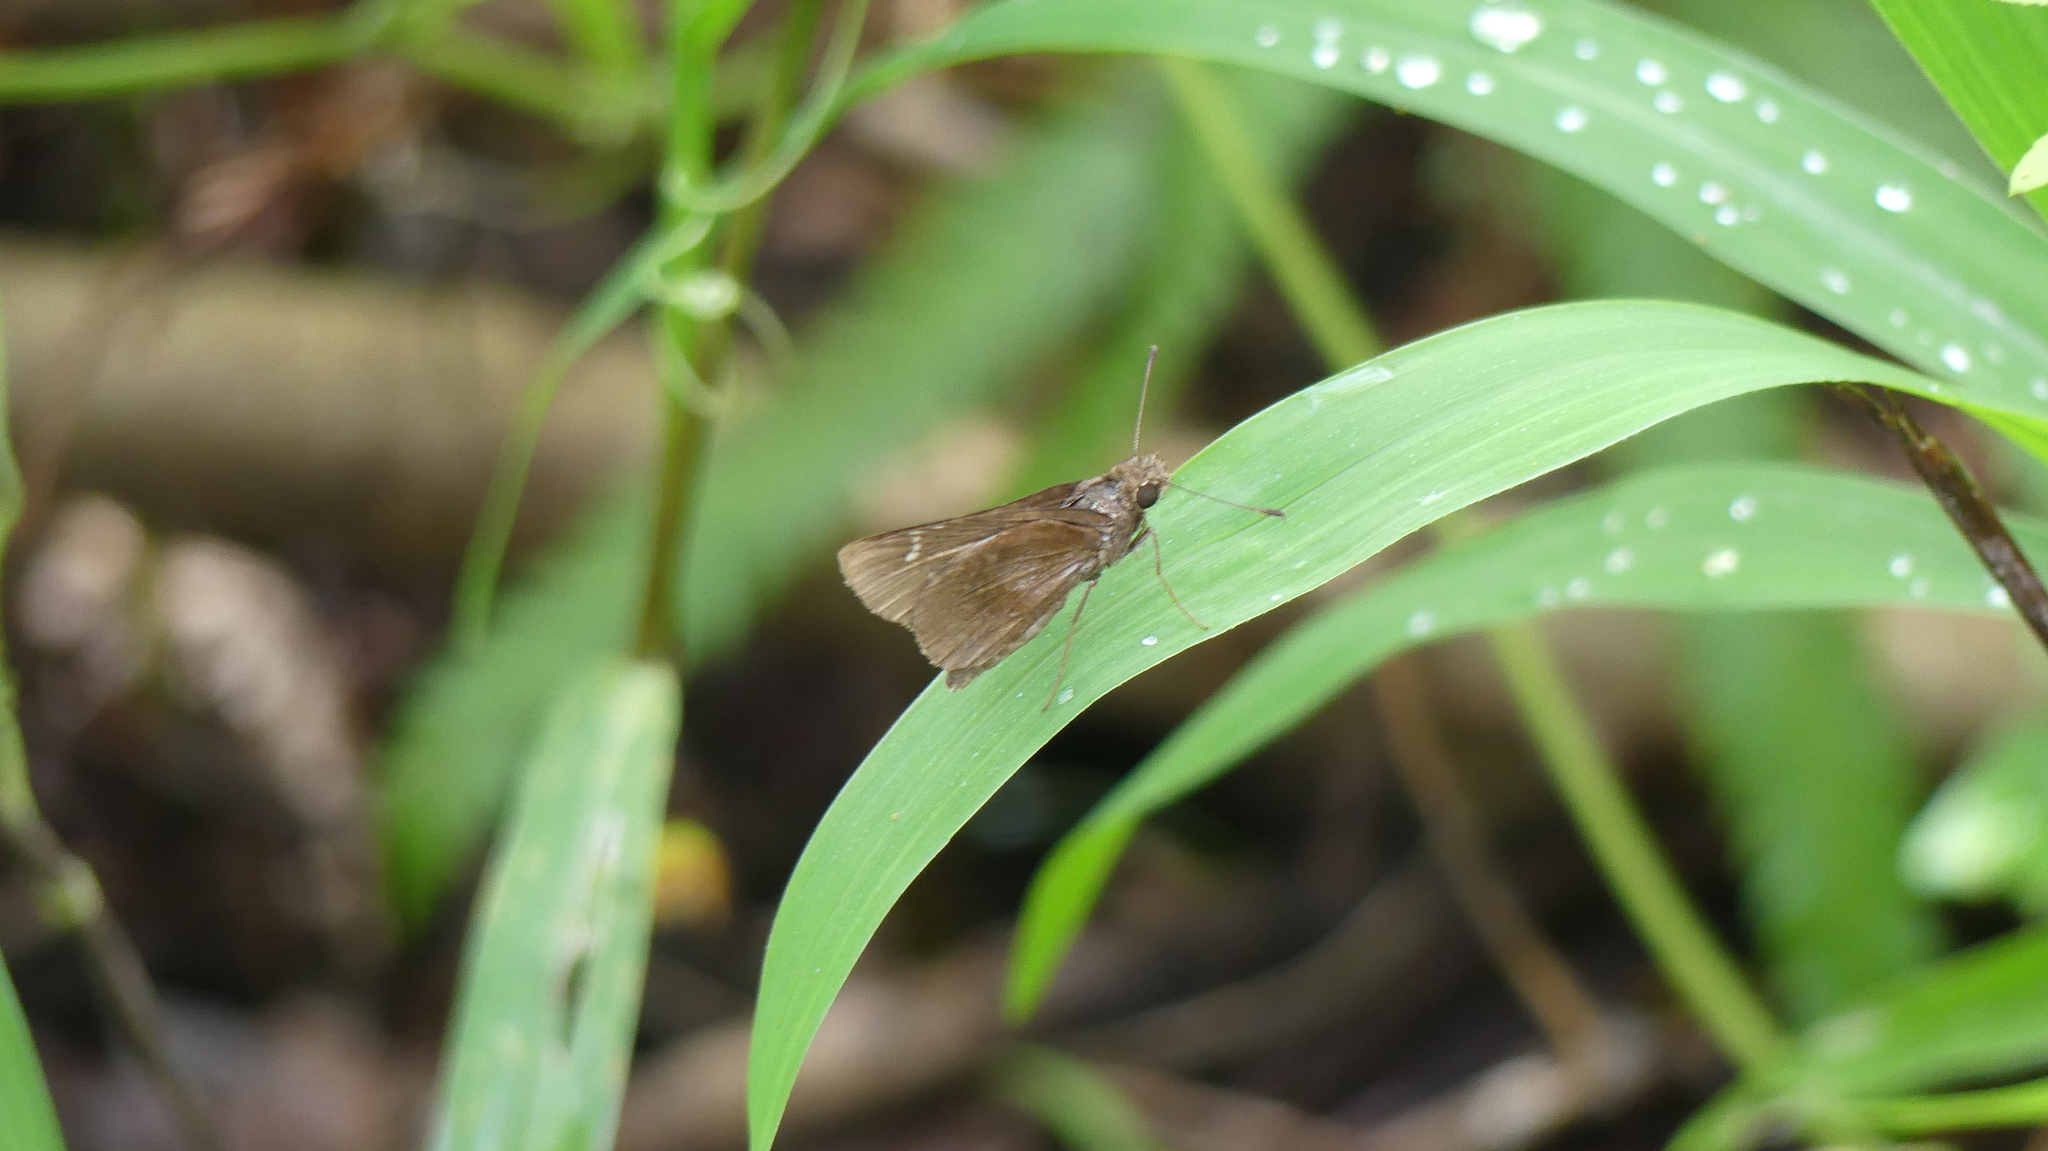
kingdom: Animalia
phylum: Arthropoda
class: Insecta
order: Lepidoptera
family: Hesperiidae
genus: Lerema
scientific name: Lerema accius
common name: Clouded skipper
